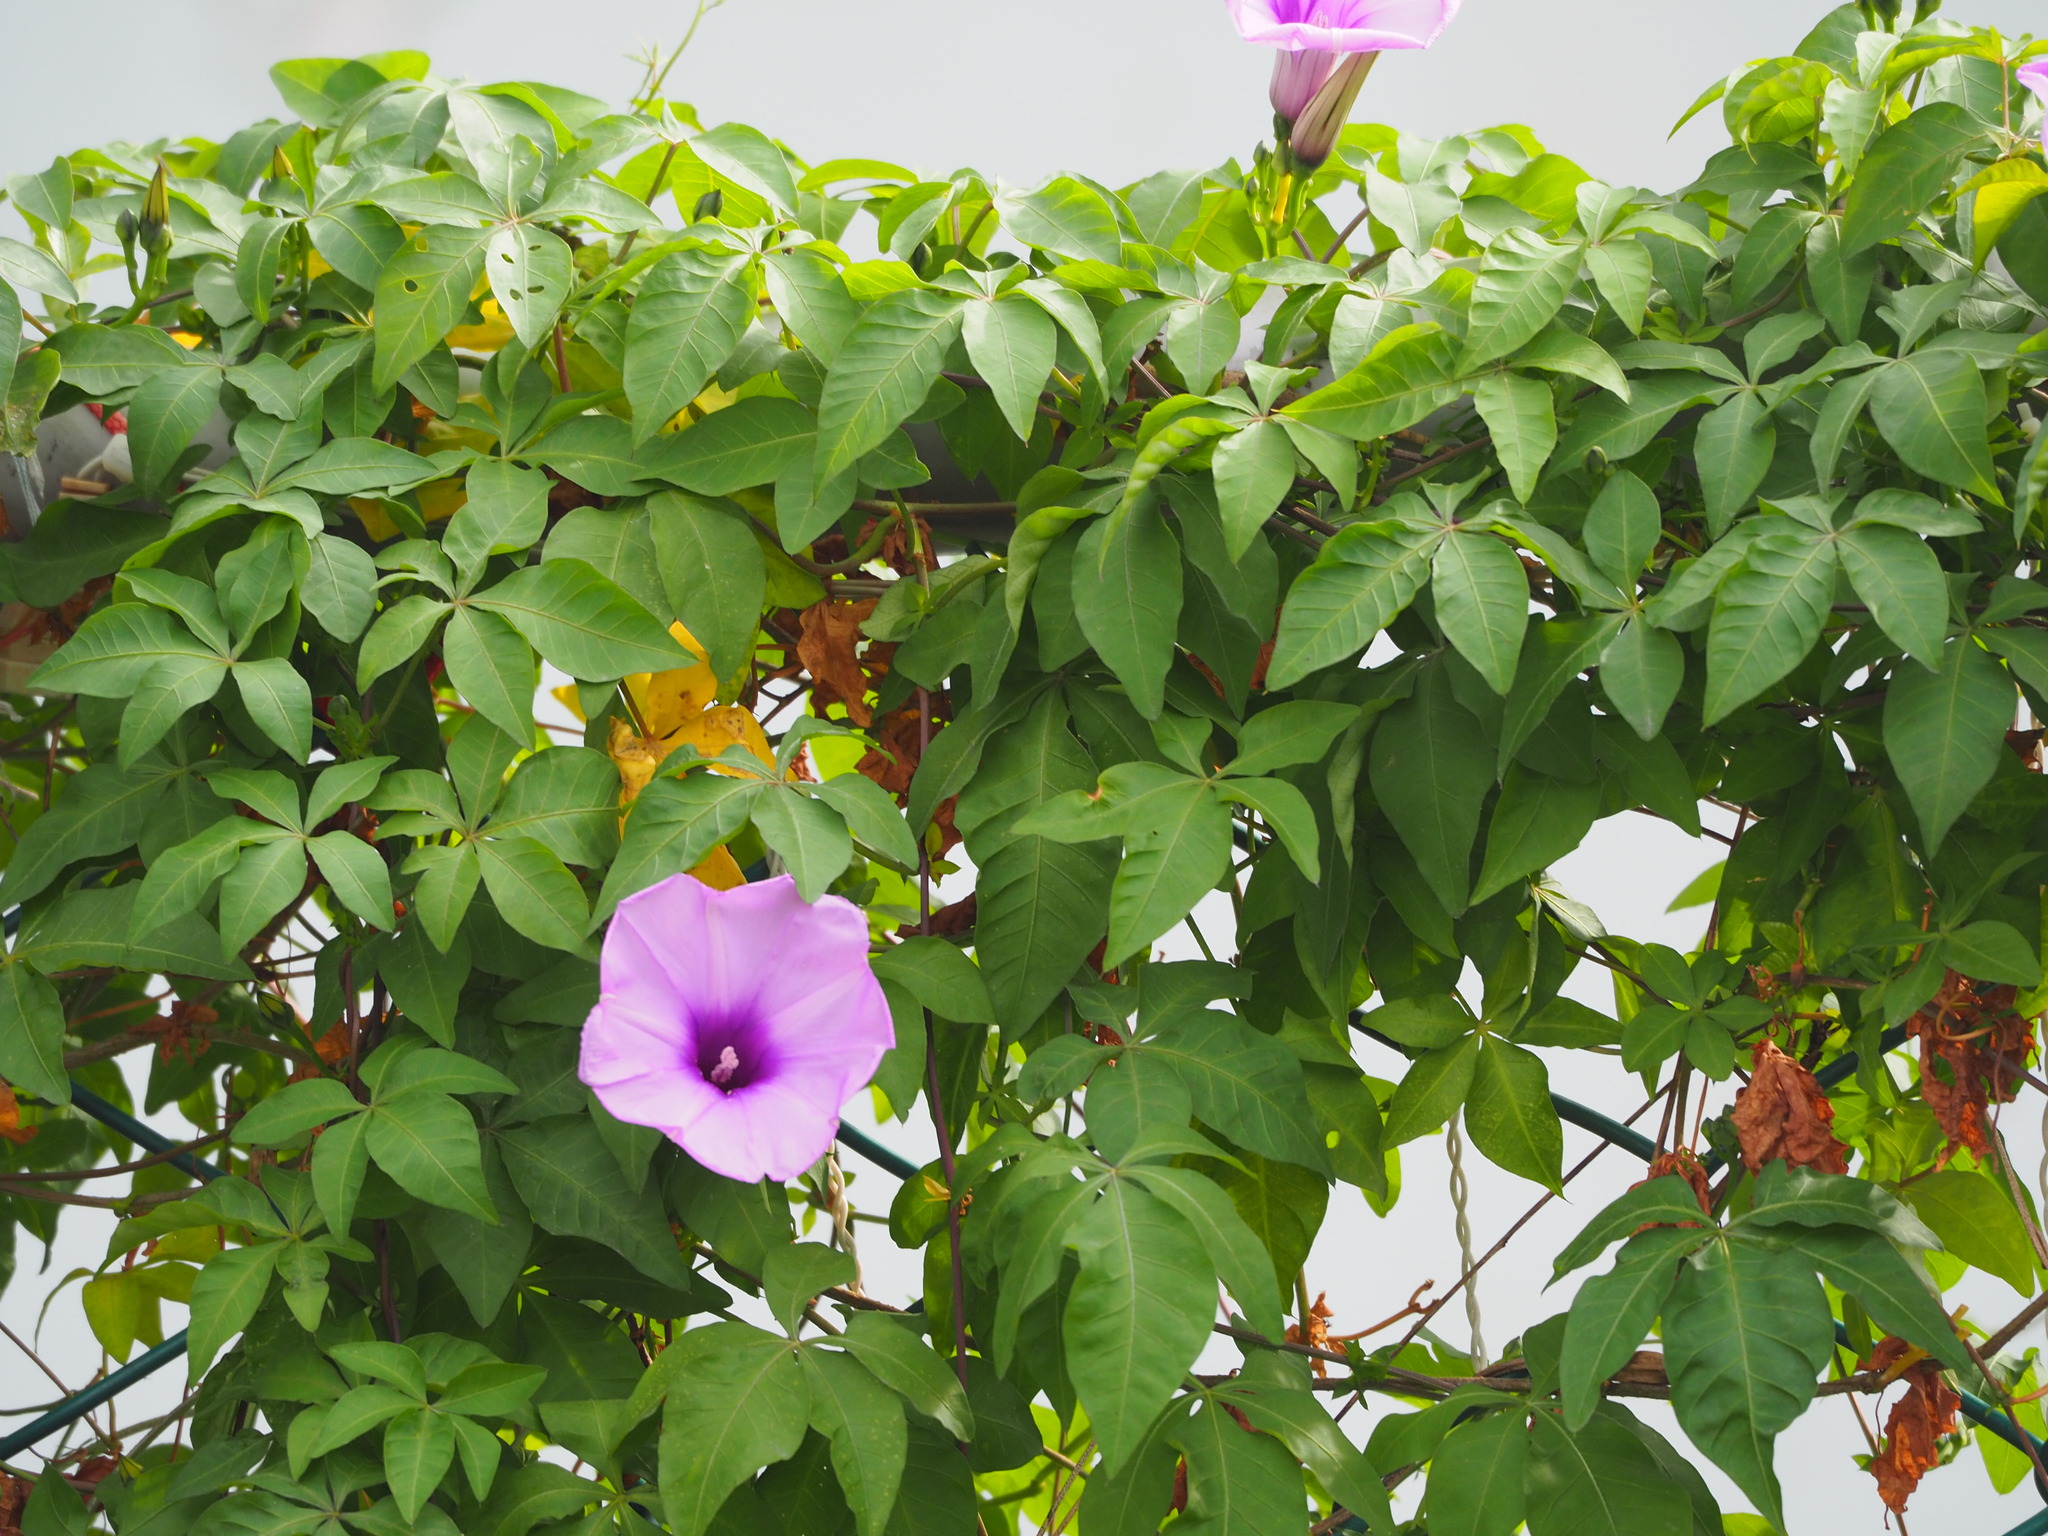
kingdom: Plantae
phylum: Tracheophyta
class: Magnoliopsida
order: Solanales
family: Convolvulaceae
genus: Ipomoea
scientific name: Ipomoea cairica
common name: Mile a minute vine
